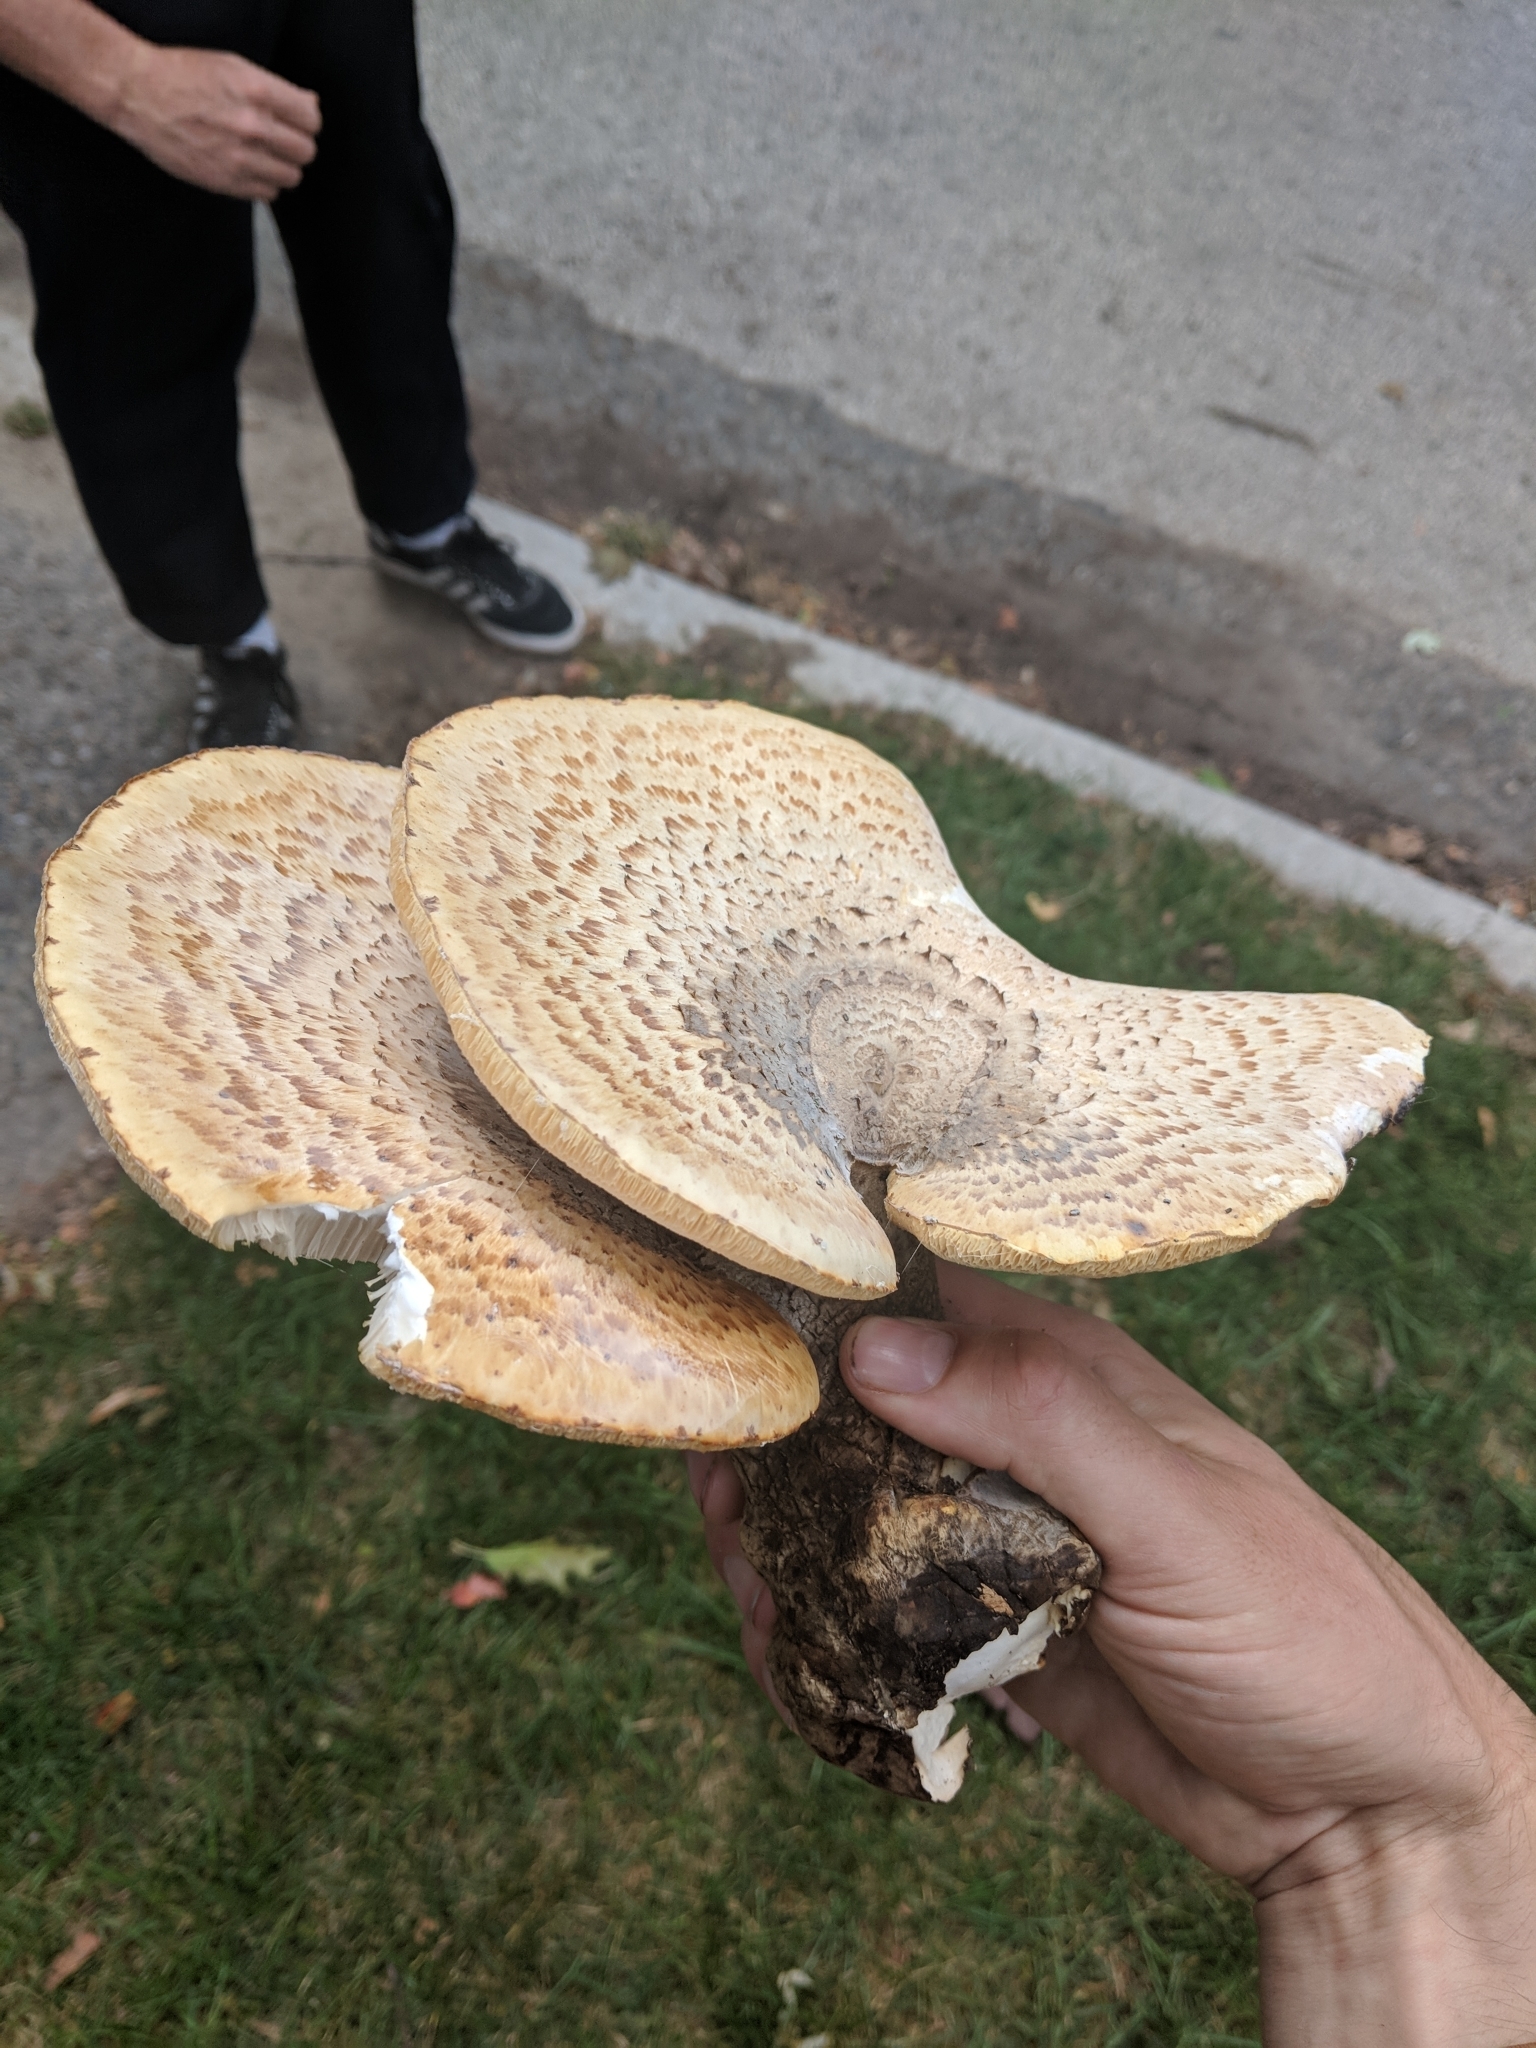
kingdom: Fungi
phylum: Basidiomycota
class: Agaricomycetes
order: Polyporales
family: Polyporaceae
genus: Cerioporus
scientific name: Cerioporus squamosus
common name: Dryad's saddle
